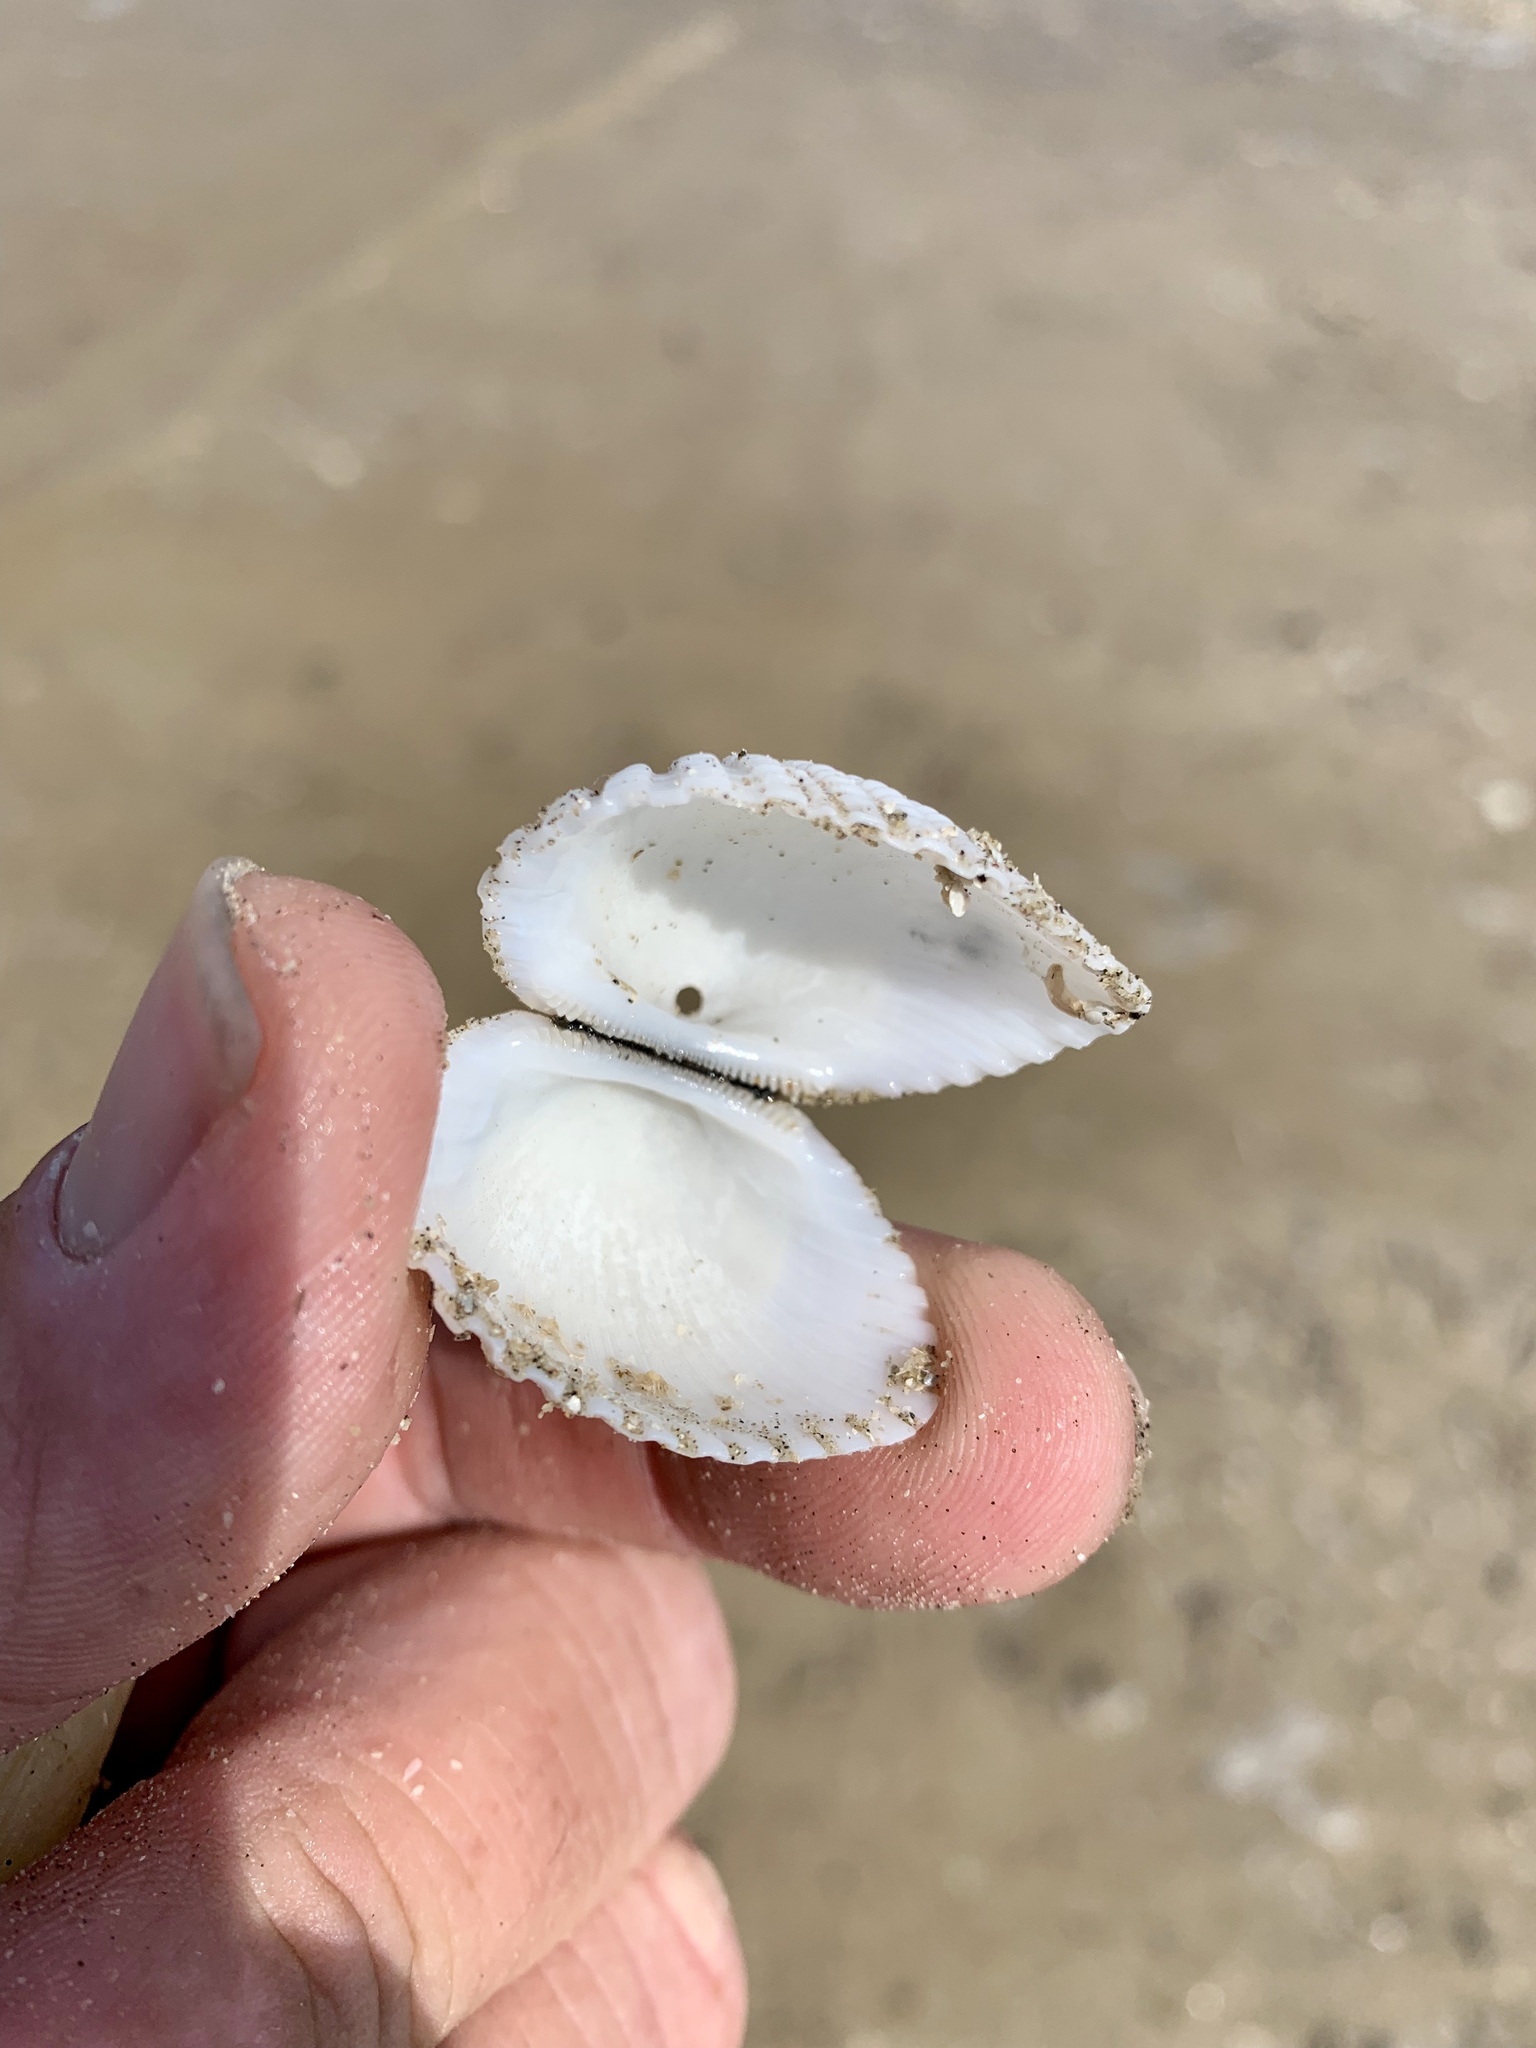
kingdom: Animalia
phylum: Mollusca
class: Bivalvia
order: Arcida
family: Arcidae
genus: Anadara
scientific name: Anadara brasiliana
